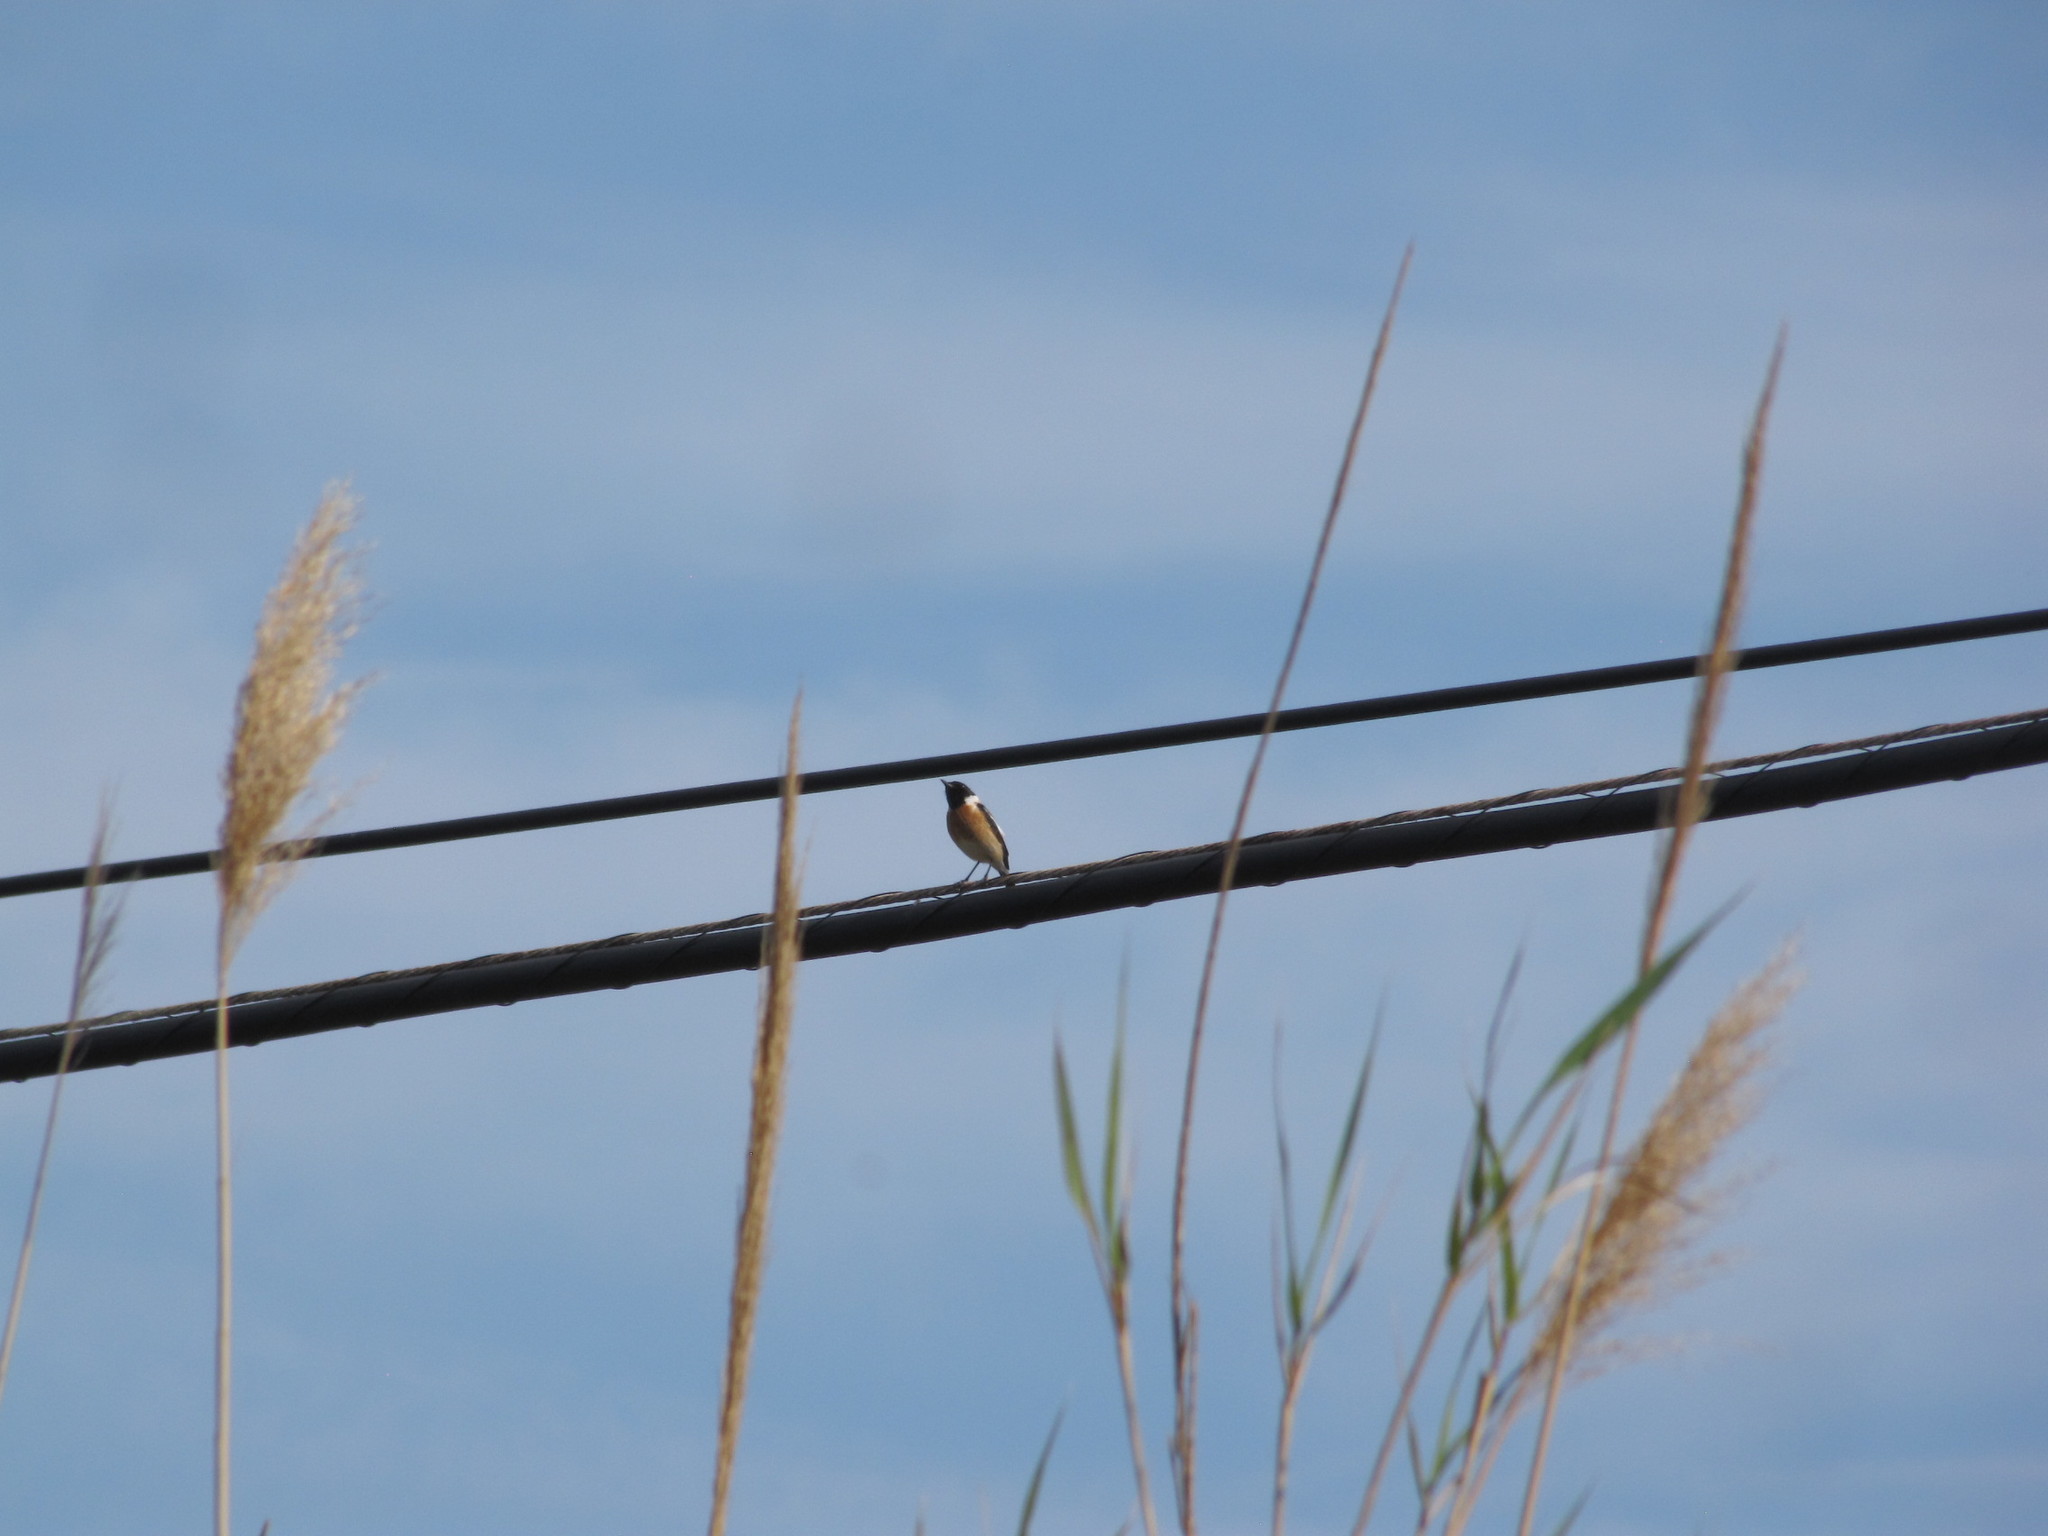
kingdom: Animalia
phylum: Chordata
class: Aves
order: Passeriformes
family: Muscicapidae
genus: Saxicola
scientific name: Saxicola rubicola
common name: European stonechat
